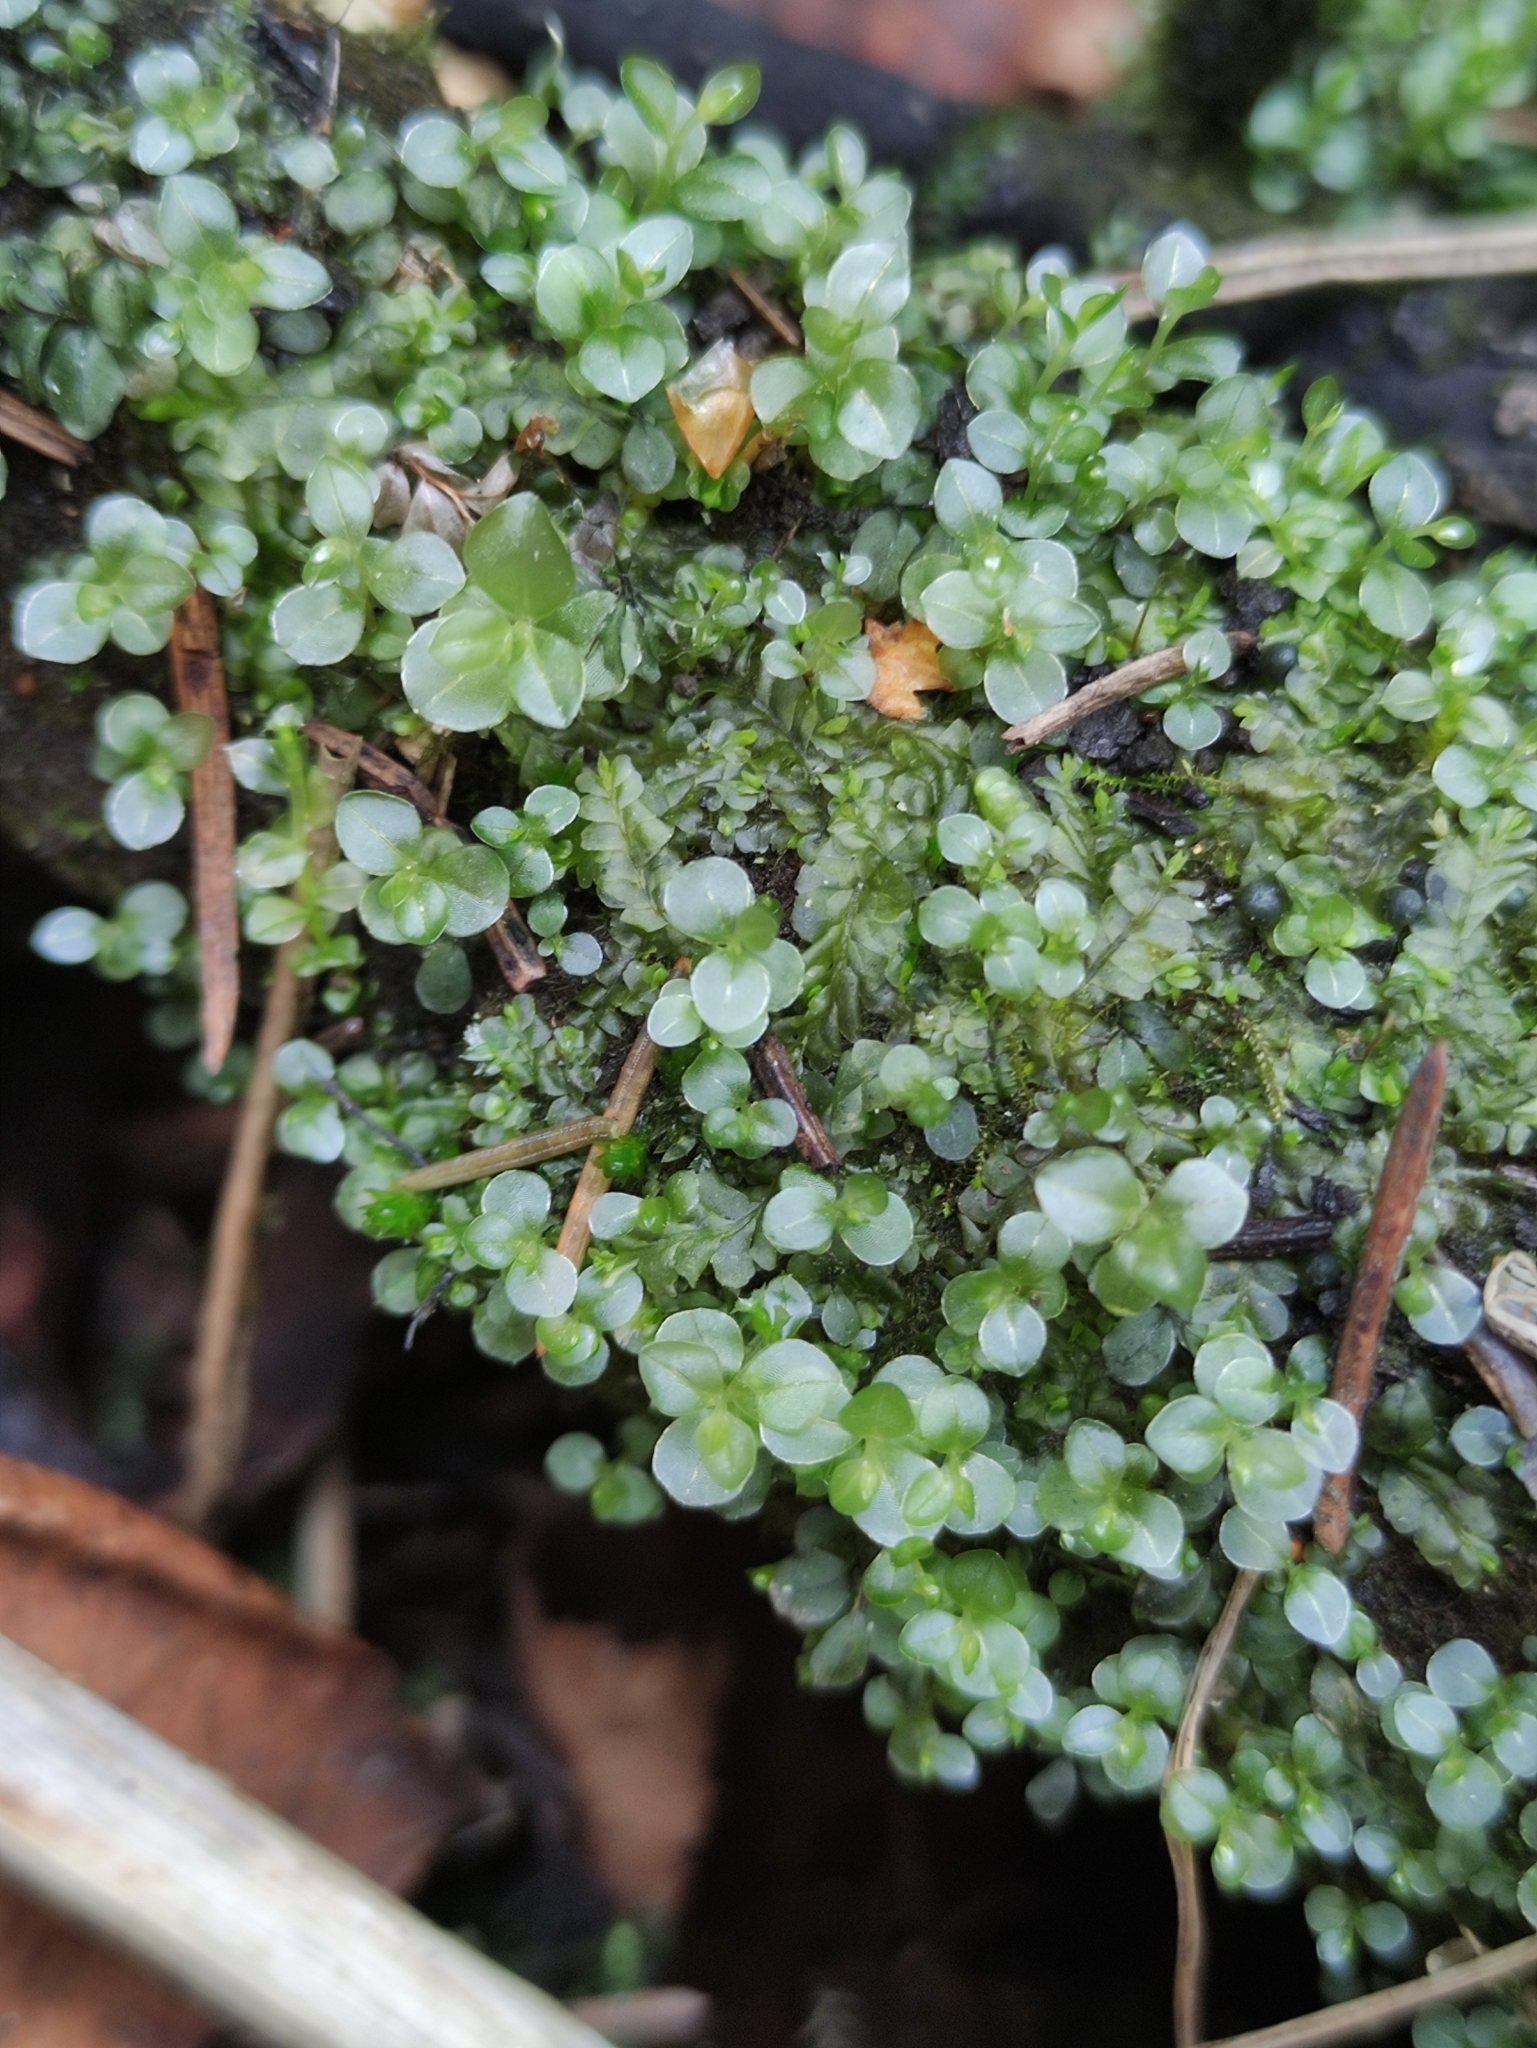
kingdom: Plantae
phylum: Bryophyta
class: Bryopsida
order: Bryales
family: Mniaceae
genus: Rhizomnium
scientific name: Rhizomnium punctatum
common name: Dotted leafy moss
